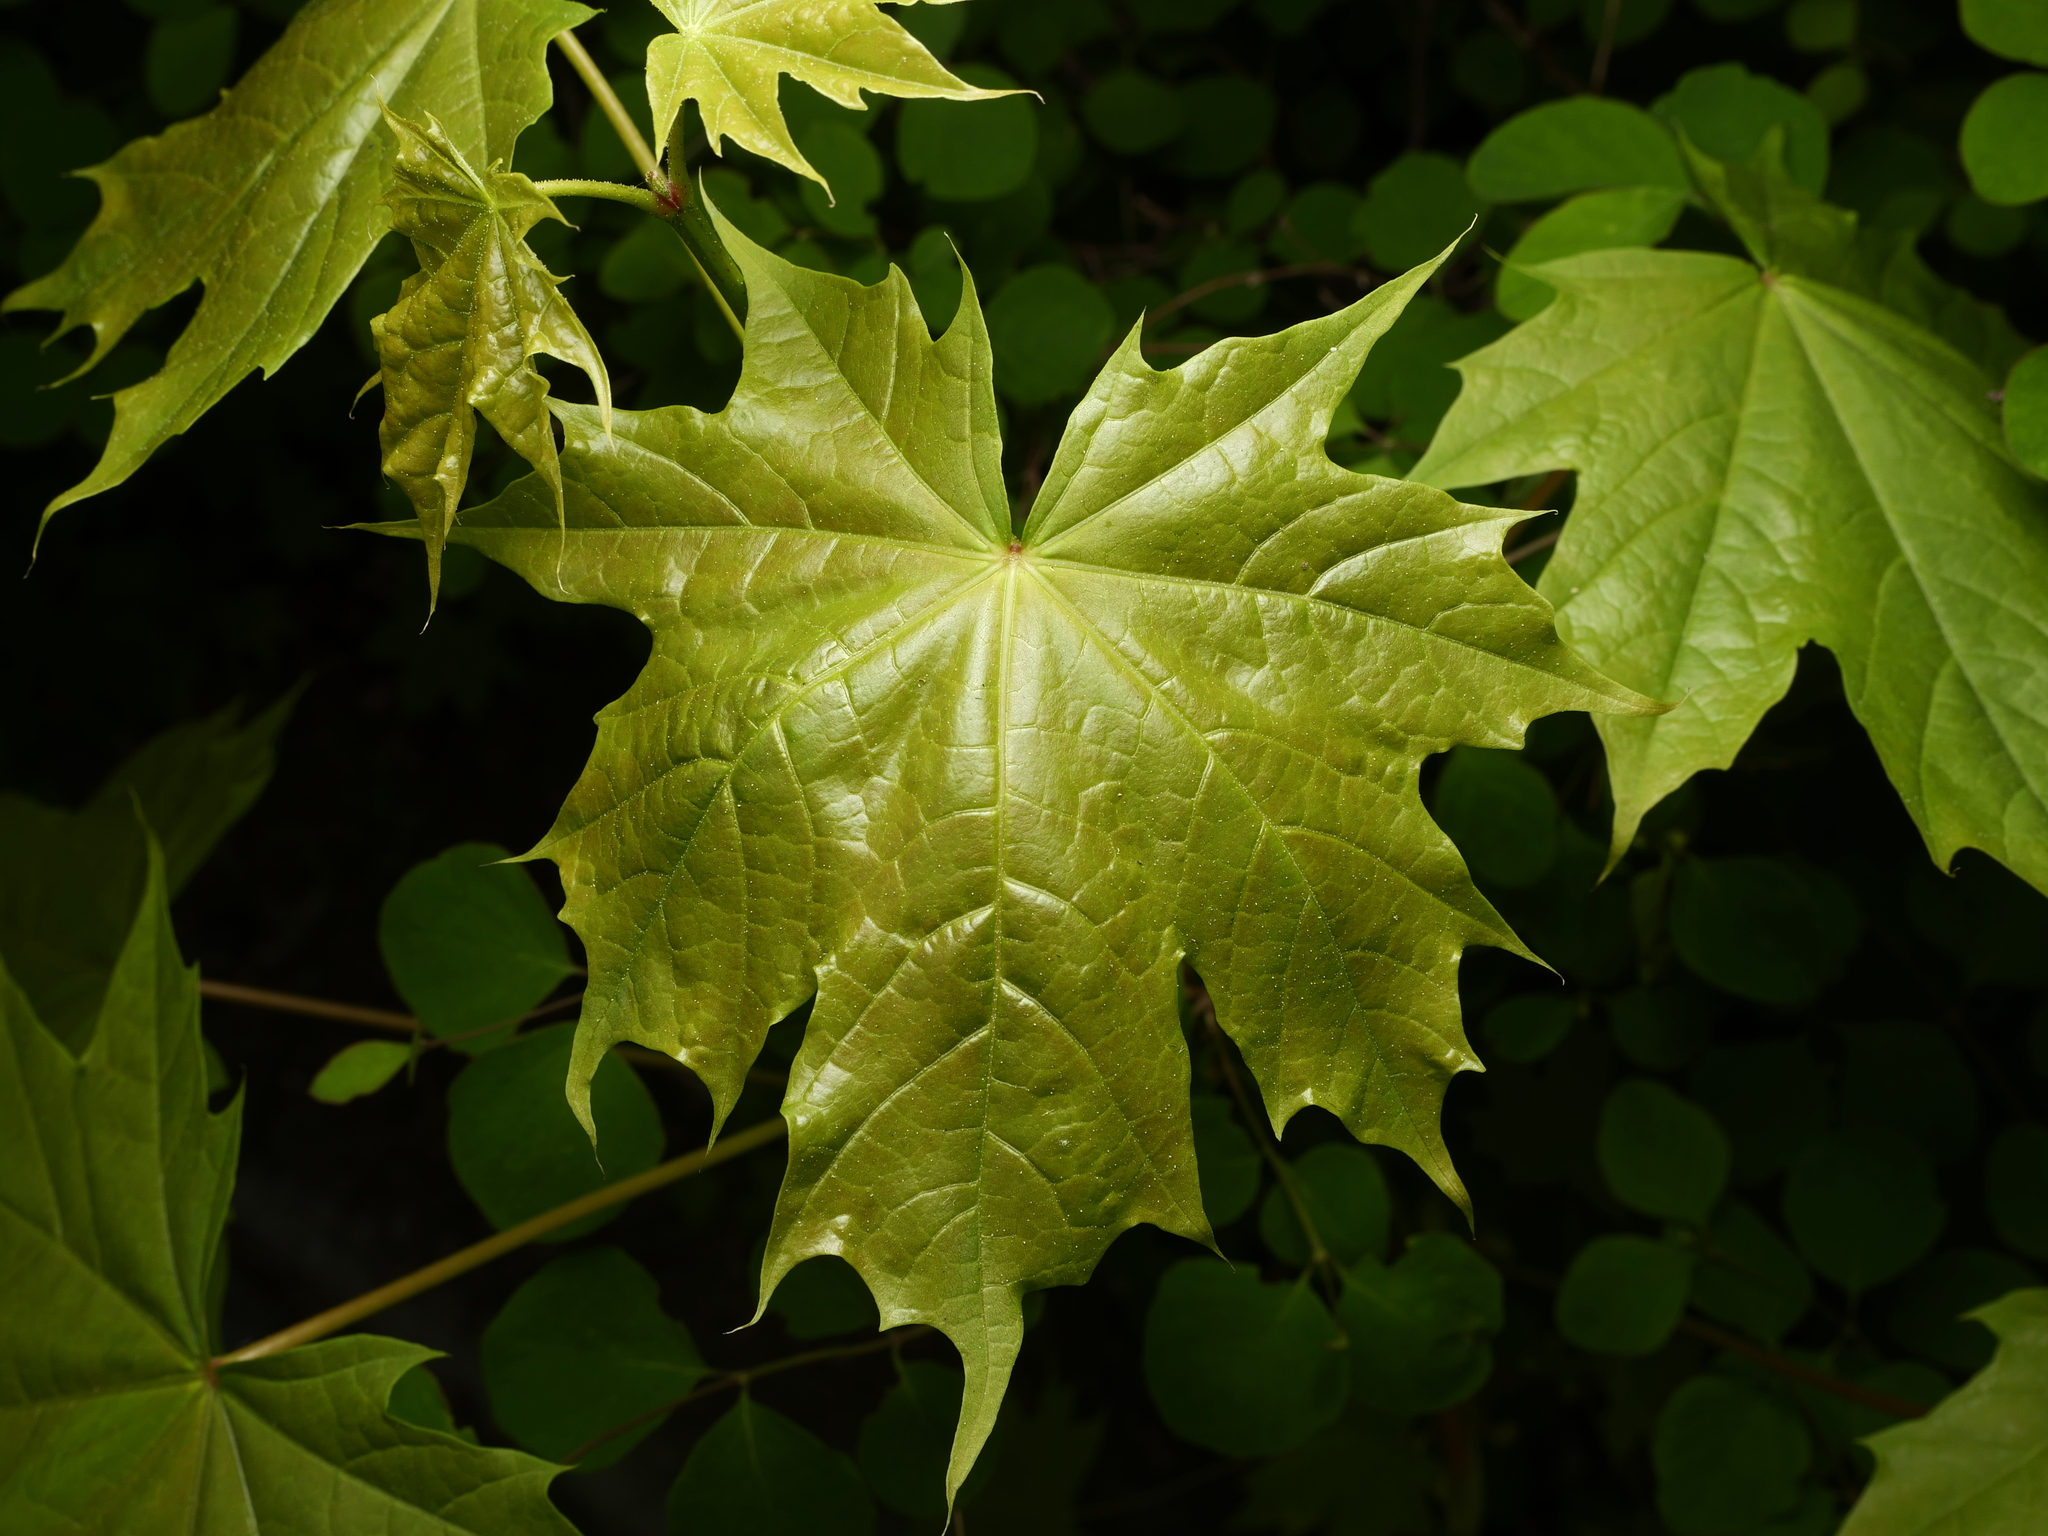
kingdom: Plantae
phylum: Tracheophyta
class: Magnoliopsida
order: Sapindales
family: Sapindaceae
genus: Acer
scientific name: Acer platanoides
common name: Norway maple
